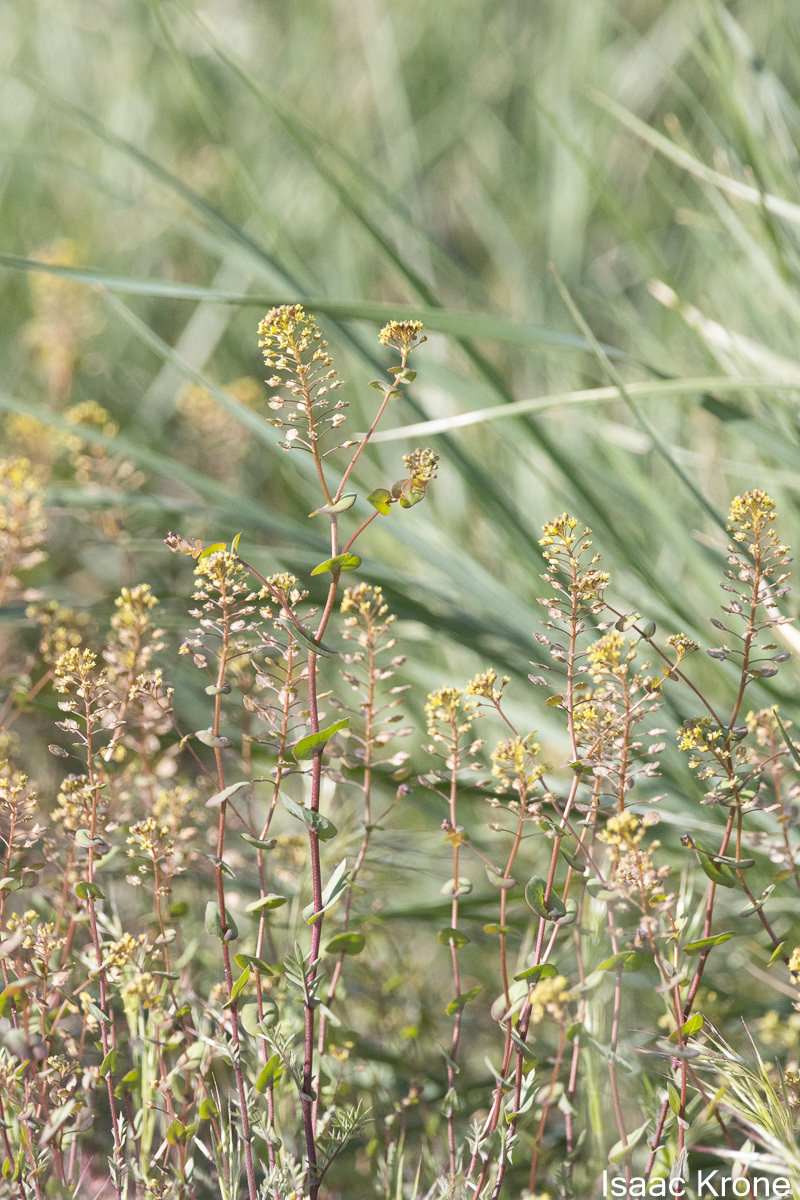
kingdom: Plantae
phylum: Tracheophyta
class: Magnoliopsida
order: Brassicales
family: Brassicaceae
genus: Lepidium
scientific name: Lepidium perfoliatum
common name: Perfoliate pepperwort
